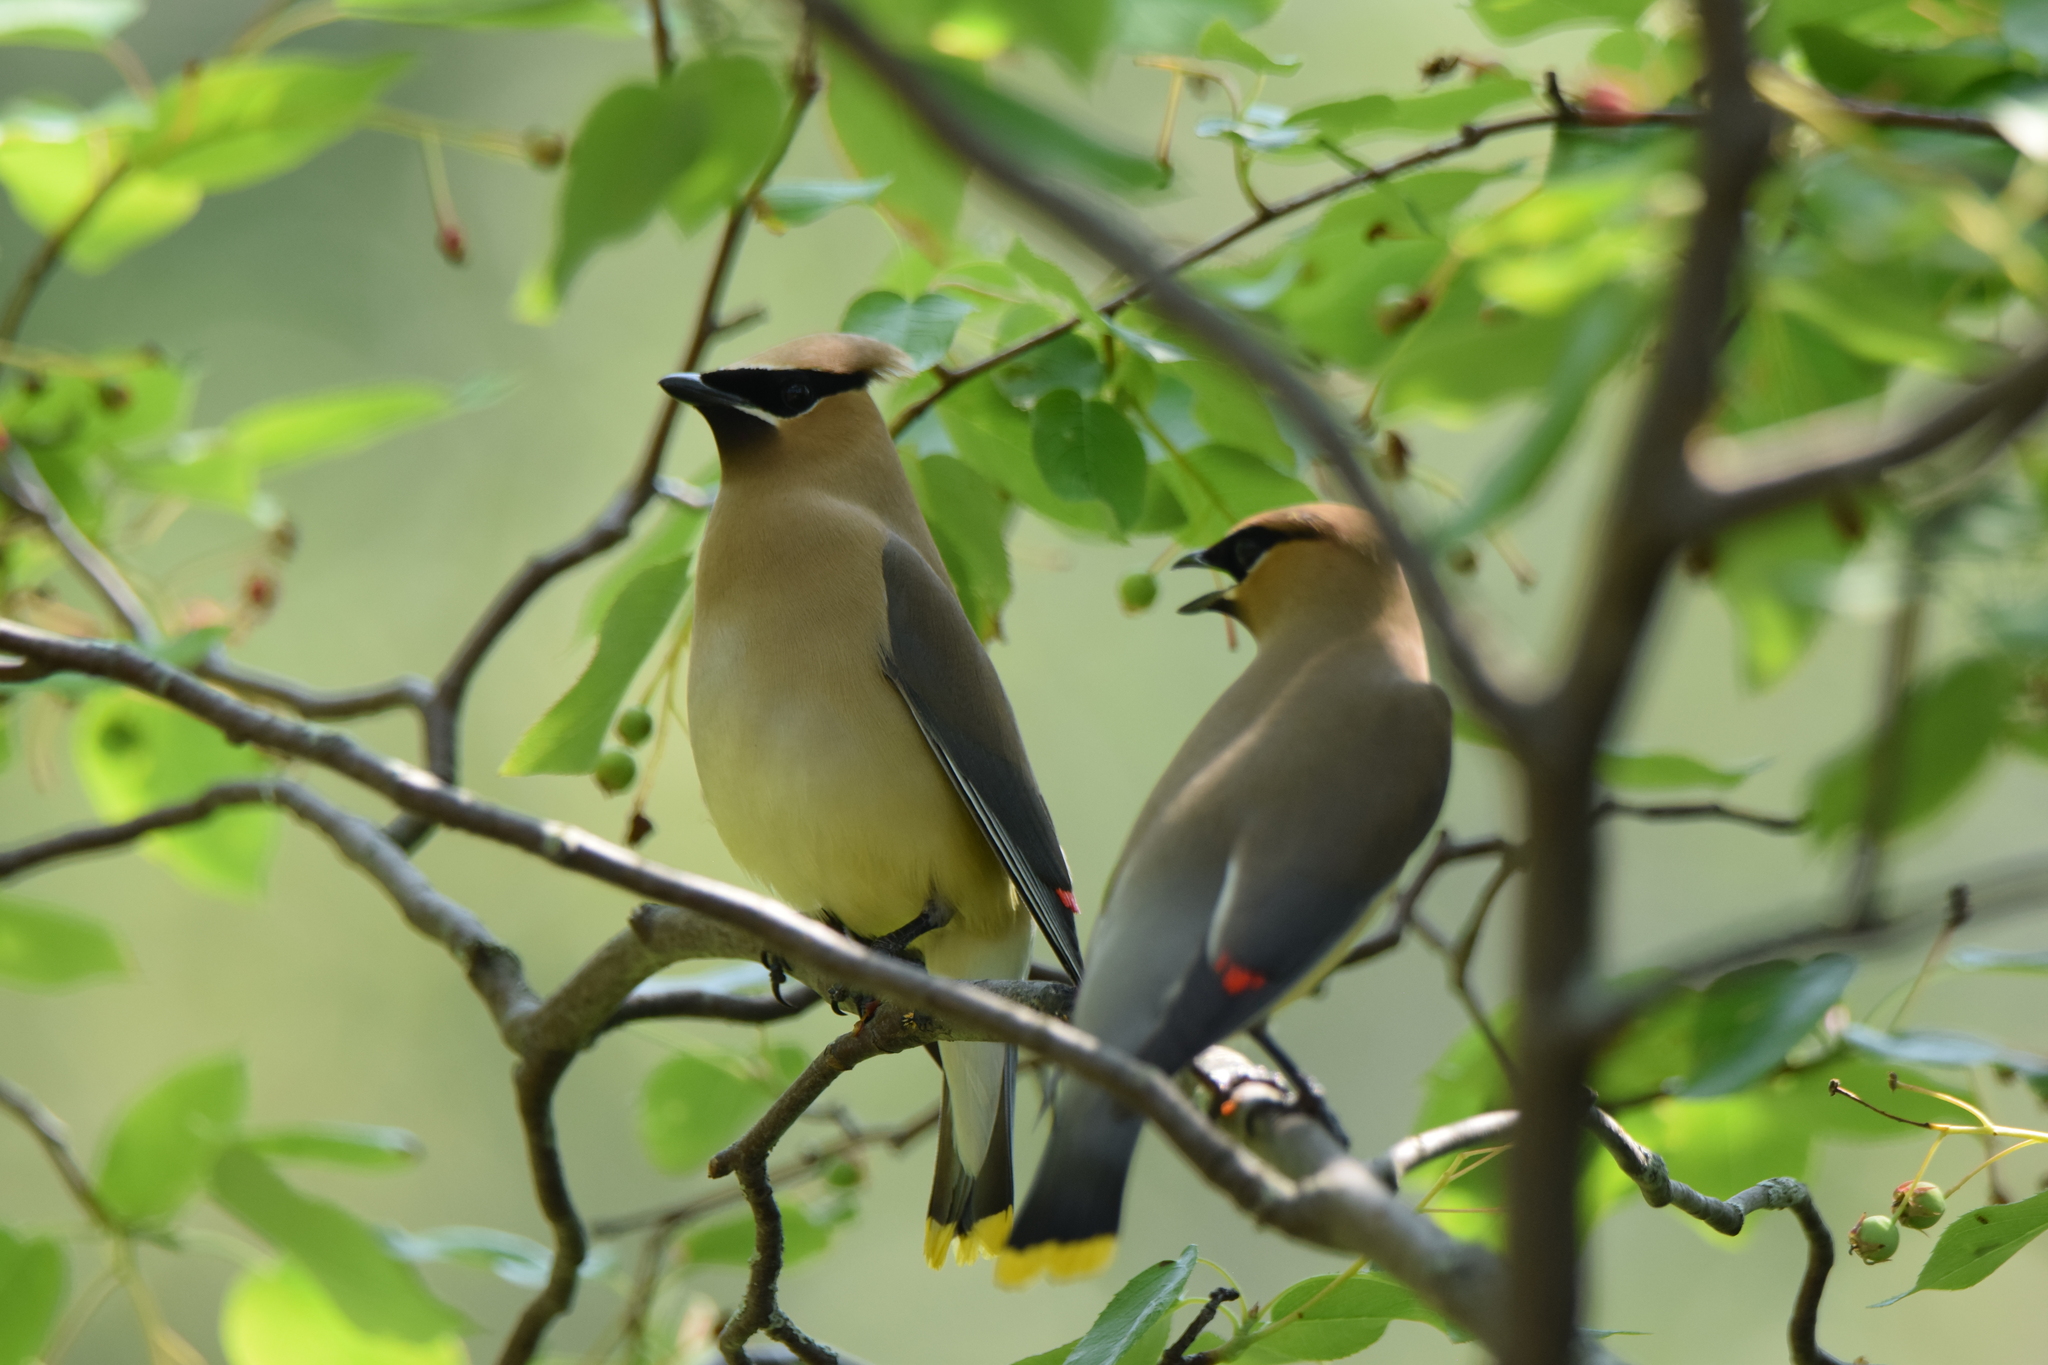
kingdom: Animalia
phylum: Chordata
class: Aves
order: Passeriformes
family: Bombycillidae
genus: Bombycilla
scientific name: Bombycilla cedrorum
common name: Cedar waxwing
